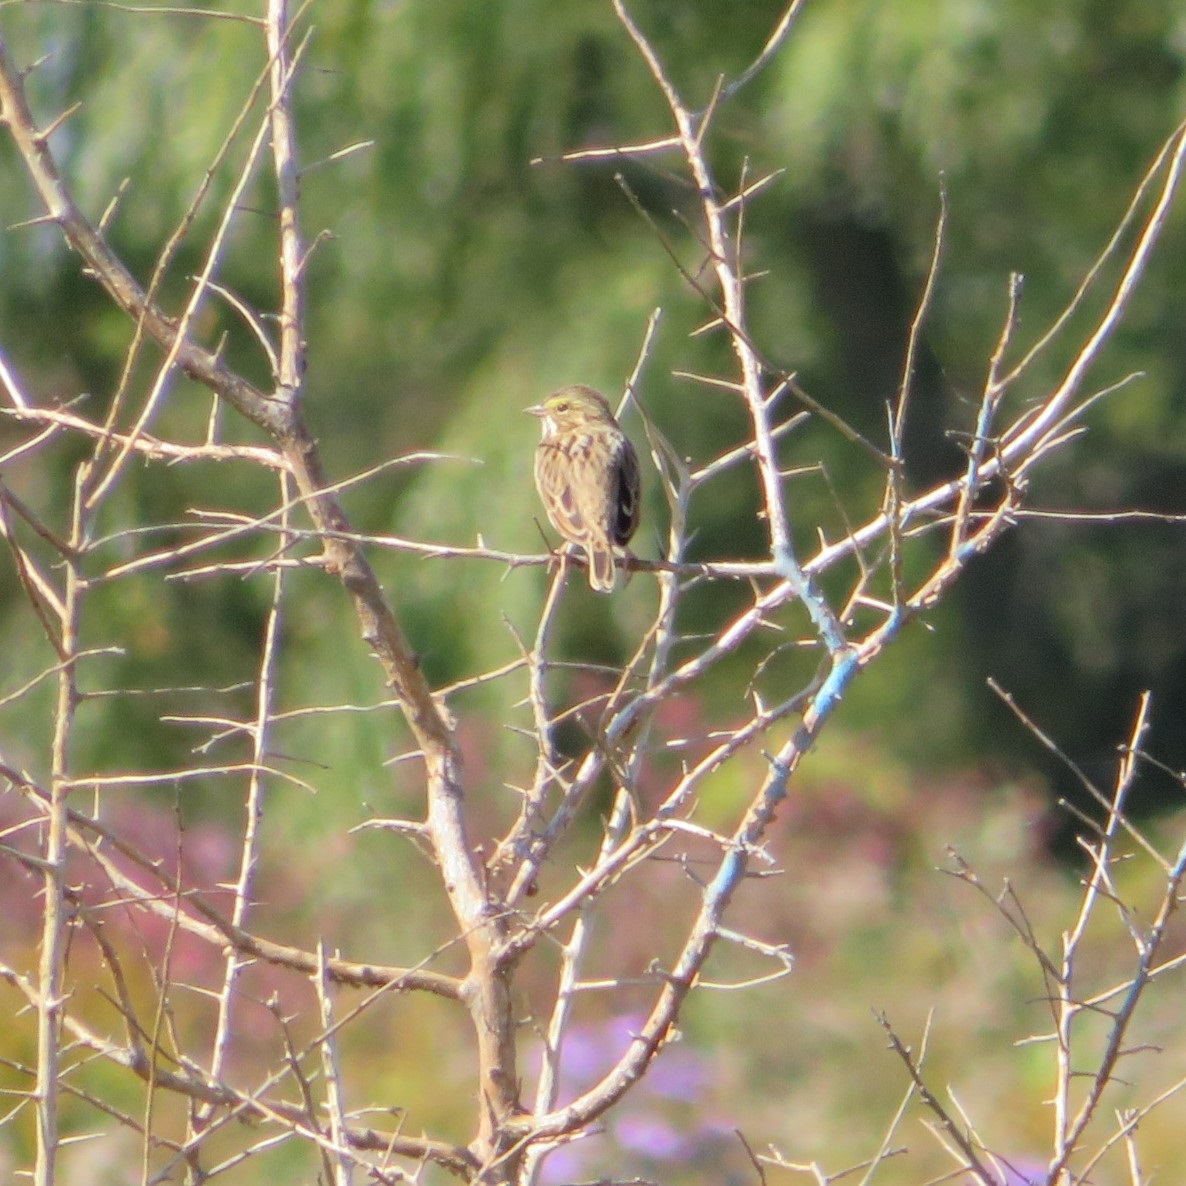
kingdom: Animalia
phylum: Chordata
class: Aves
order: Passeriformes
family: Passerellidae
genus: Passerculus
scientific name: Passerculus sandwichensis
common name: Savannah sparrow
